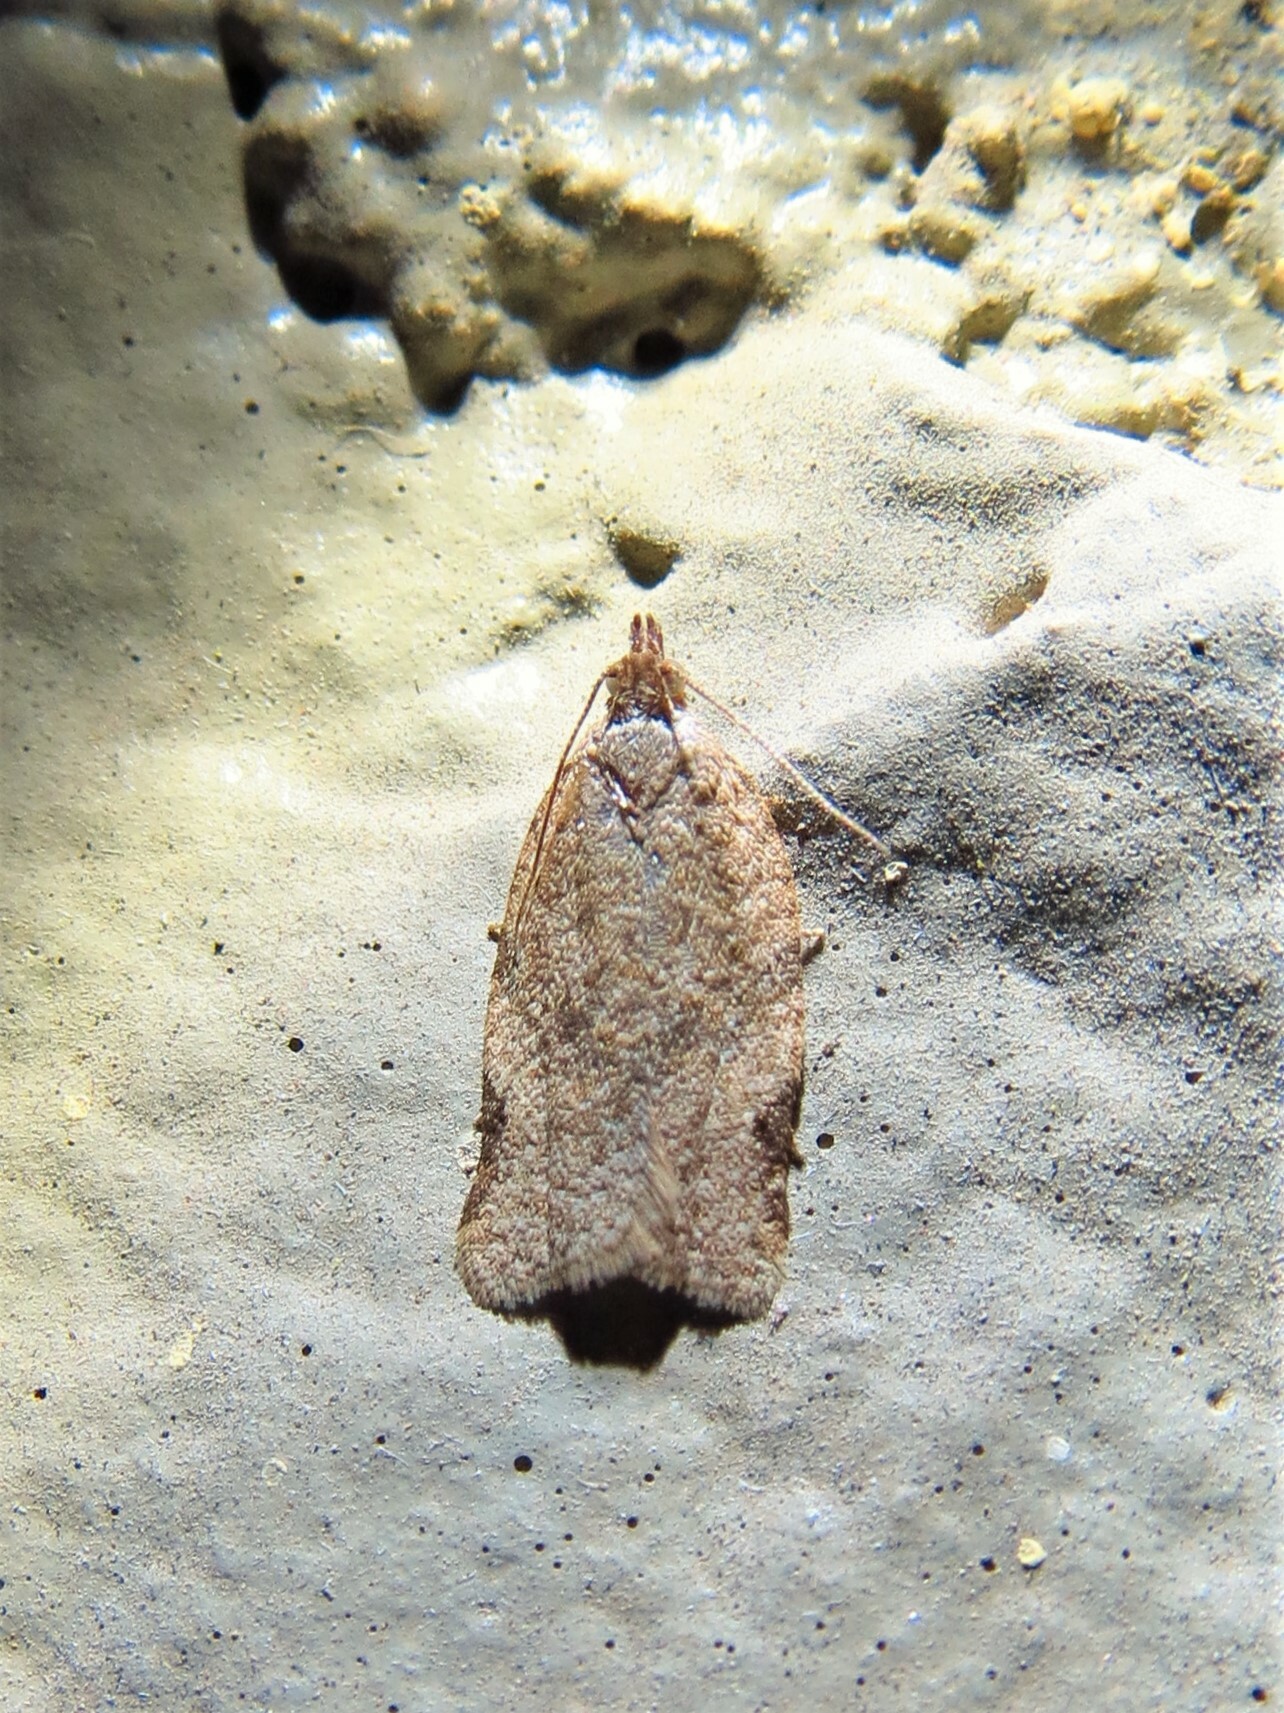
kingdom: Animalia
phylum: Arthropoda
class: Insecta
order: Lepidoptera
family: Tortricidae
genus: Clepsis
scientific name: Clepsis virescana
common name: Greenish apple moth
